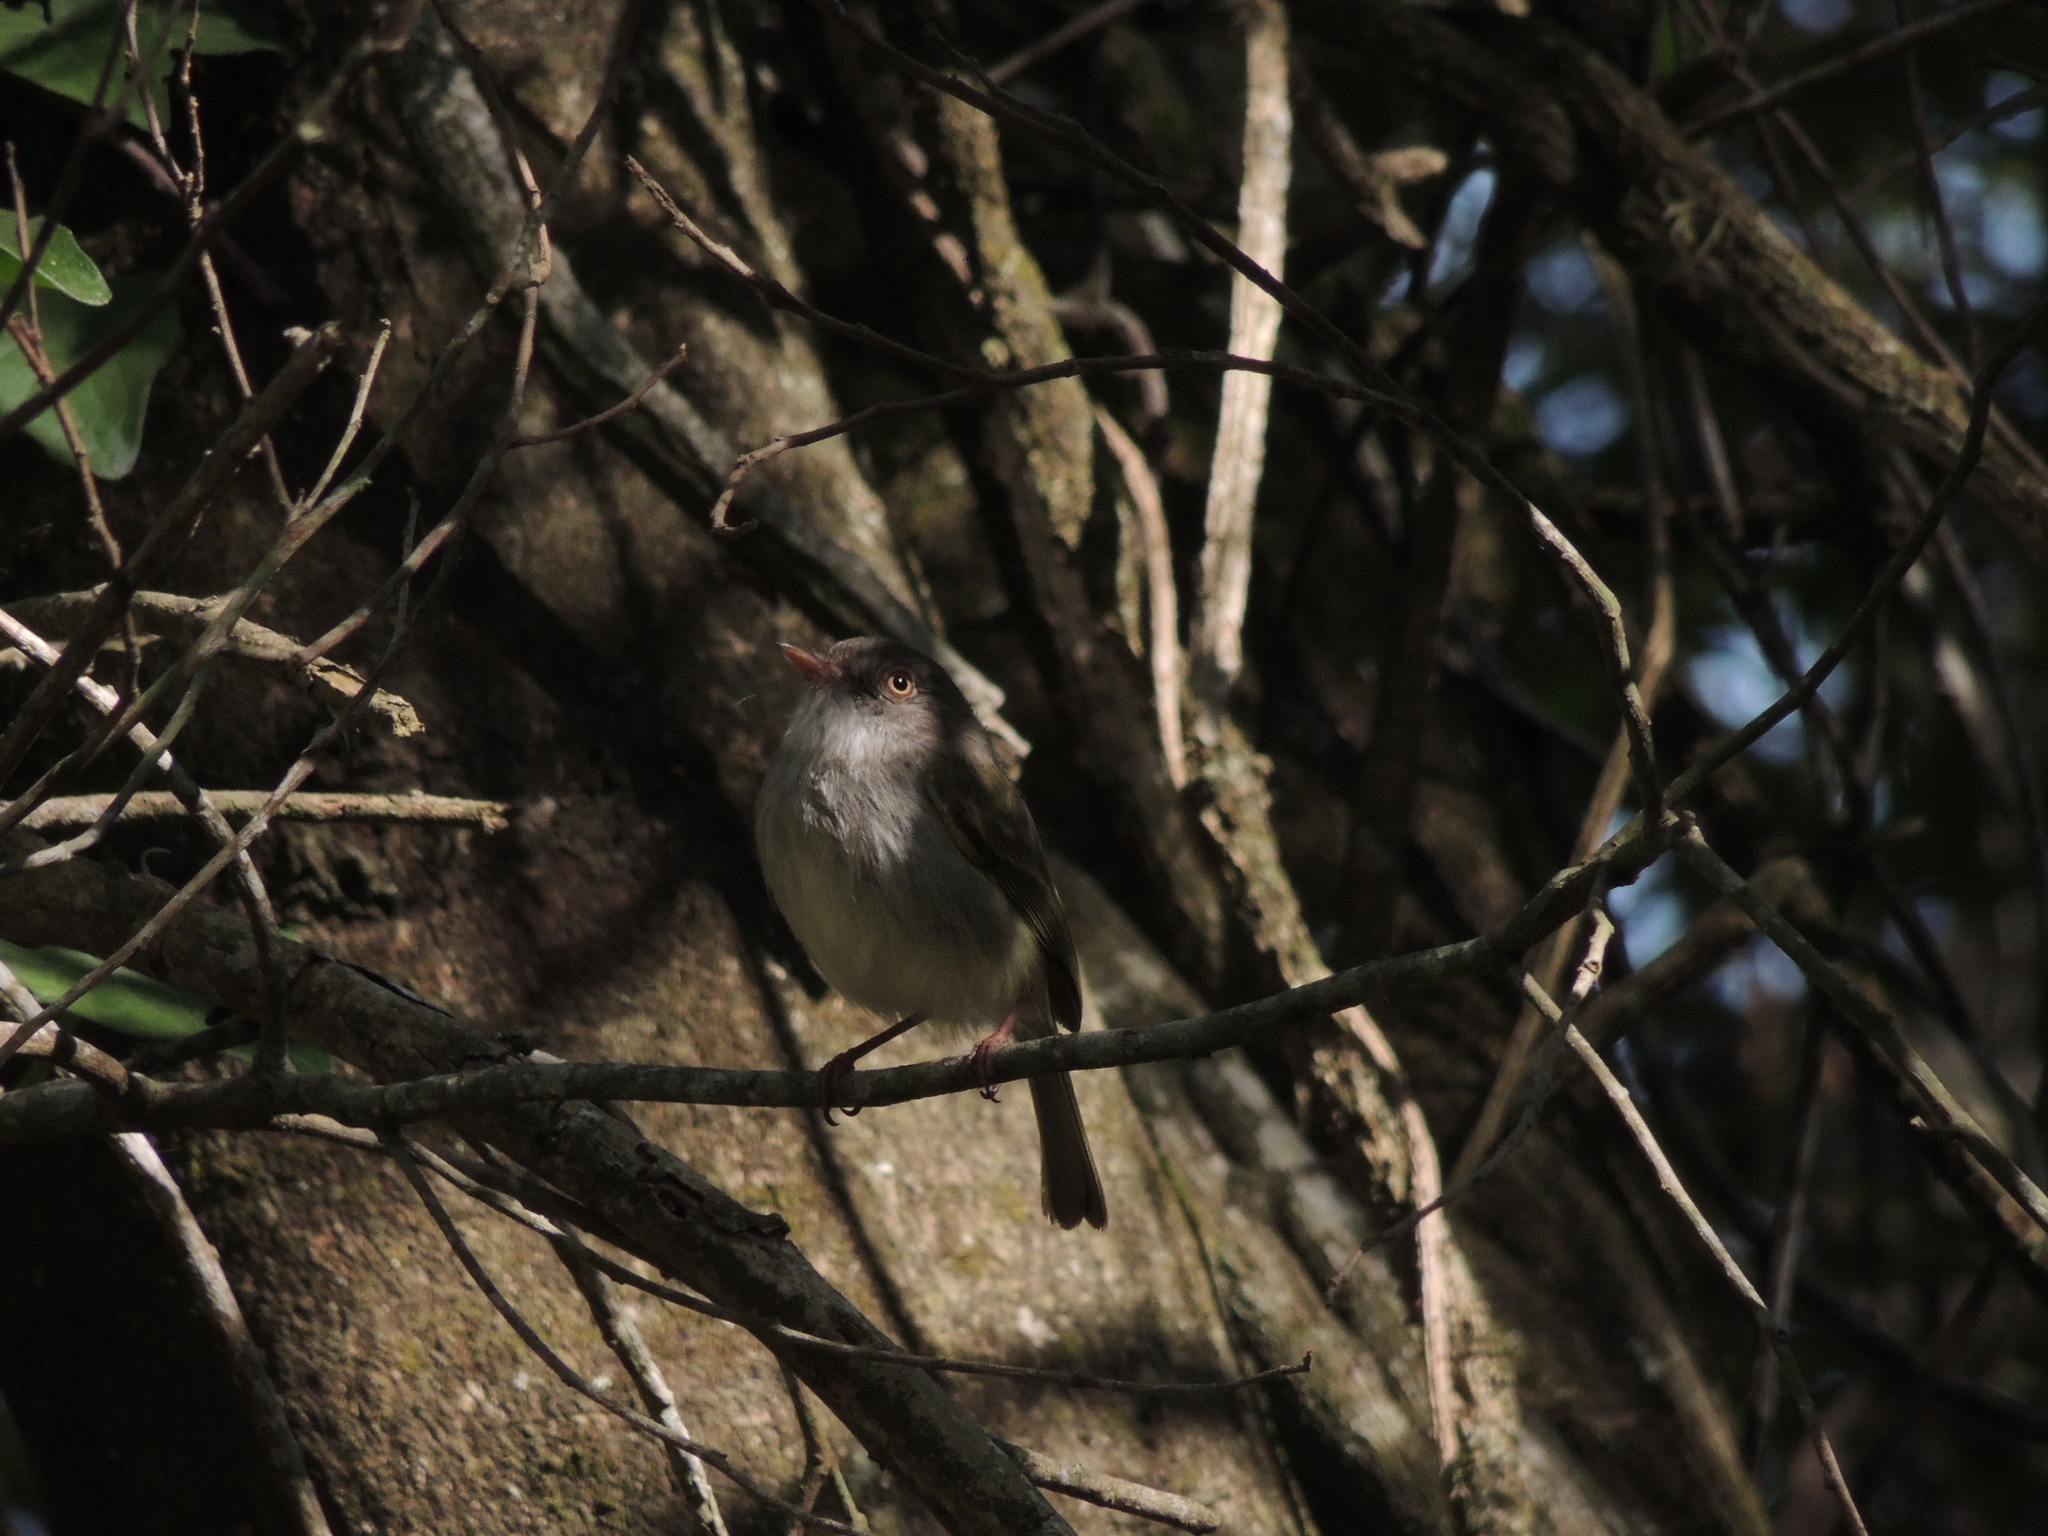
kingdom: Animalia
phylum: Chordata
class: Aves
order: Passeriformes
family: Tyrannidae
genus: Hemitriccus
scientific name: Hemitriccus margaritaceiventer
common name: Pearly-vented tody-tyrant
